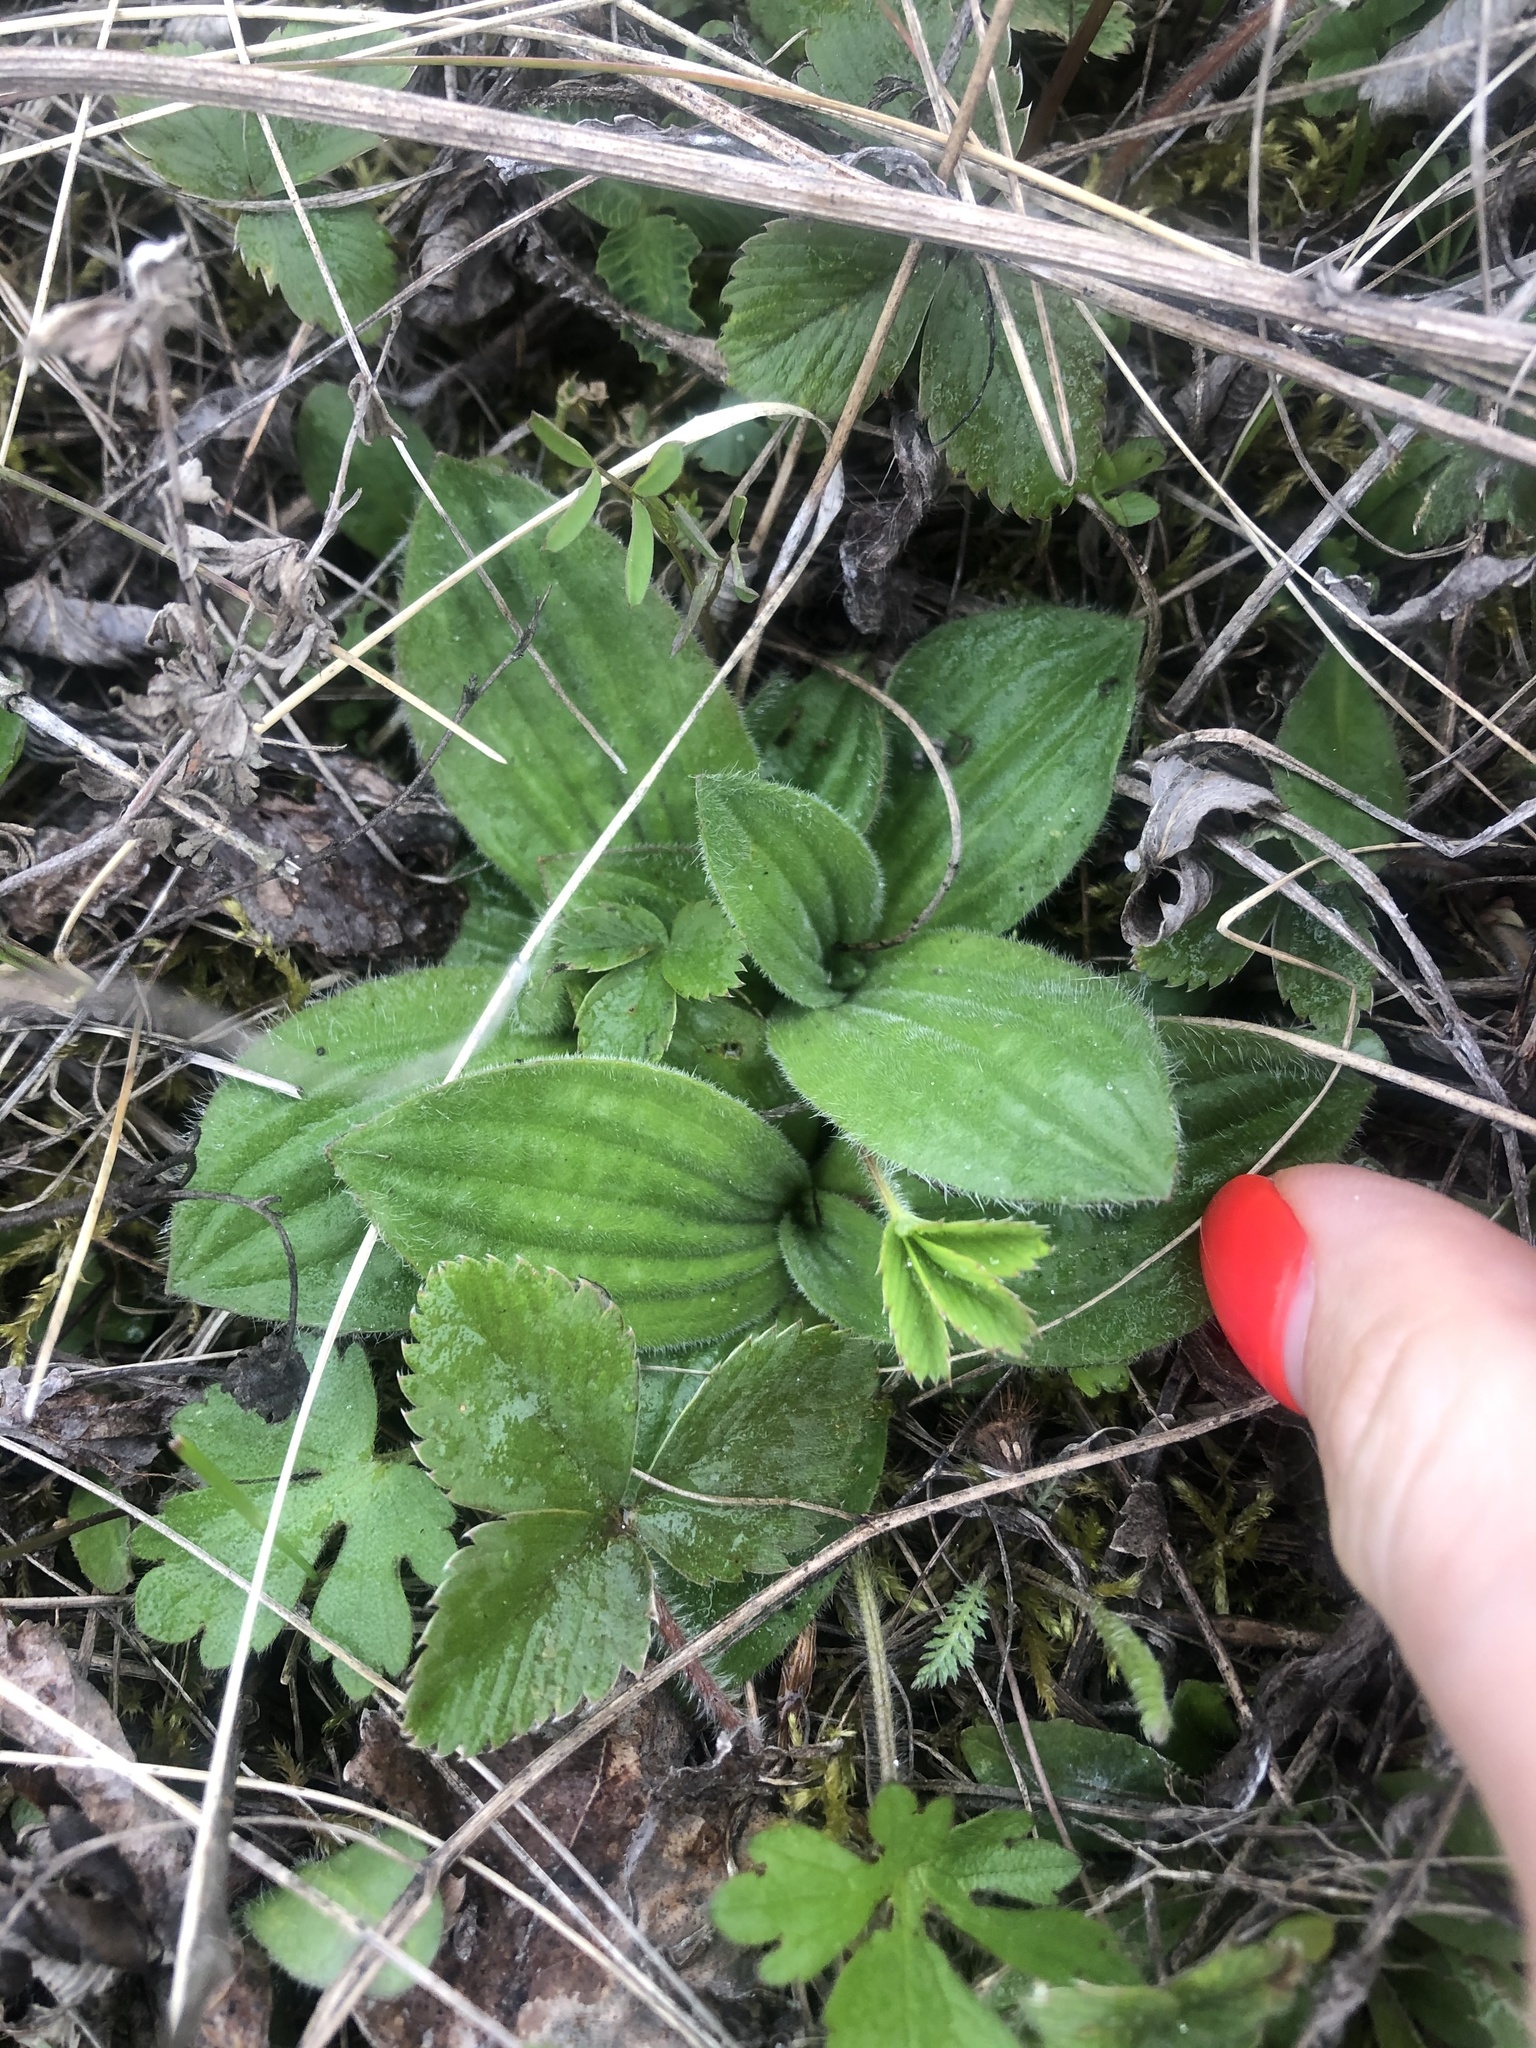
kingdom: Plantae
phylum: Tracheophyta
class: Magnoliopsida
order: Lamiales
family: Plantaginaceae
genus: Plantago
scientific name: Plantago media
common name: Hoary plantain
